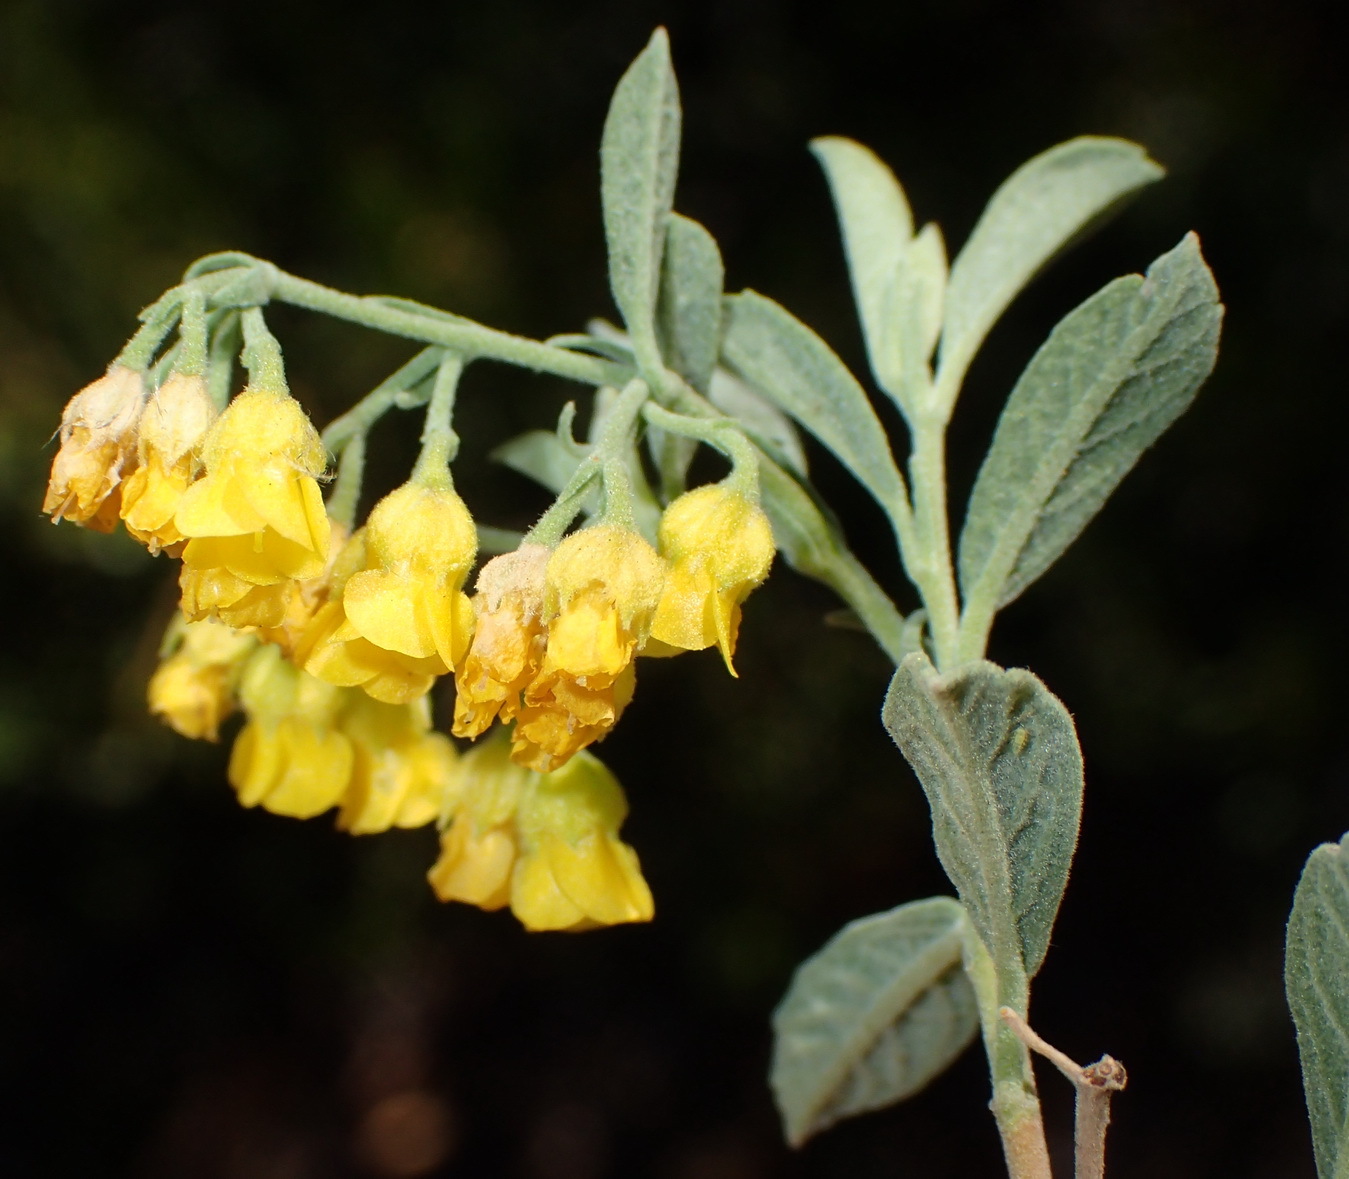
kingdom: Plantae
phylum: Tracheophyta
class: Magnoliopsida
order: Malvales
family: Malvaceae
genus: Hermannia
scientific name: Hermannia holosericea
